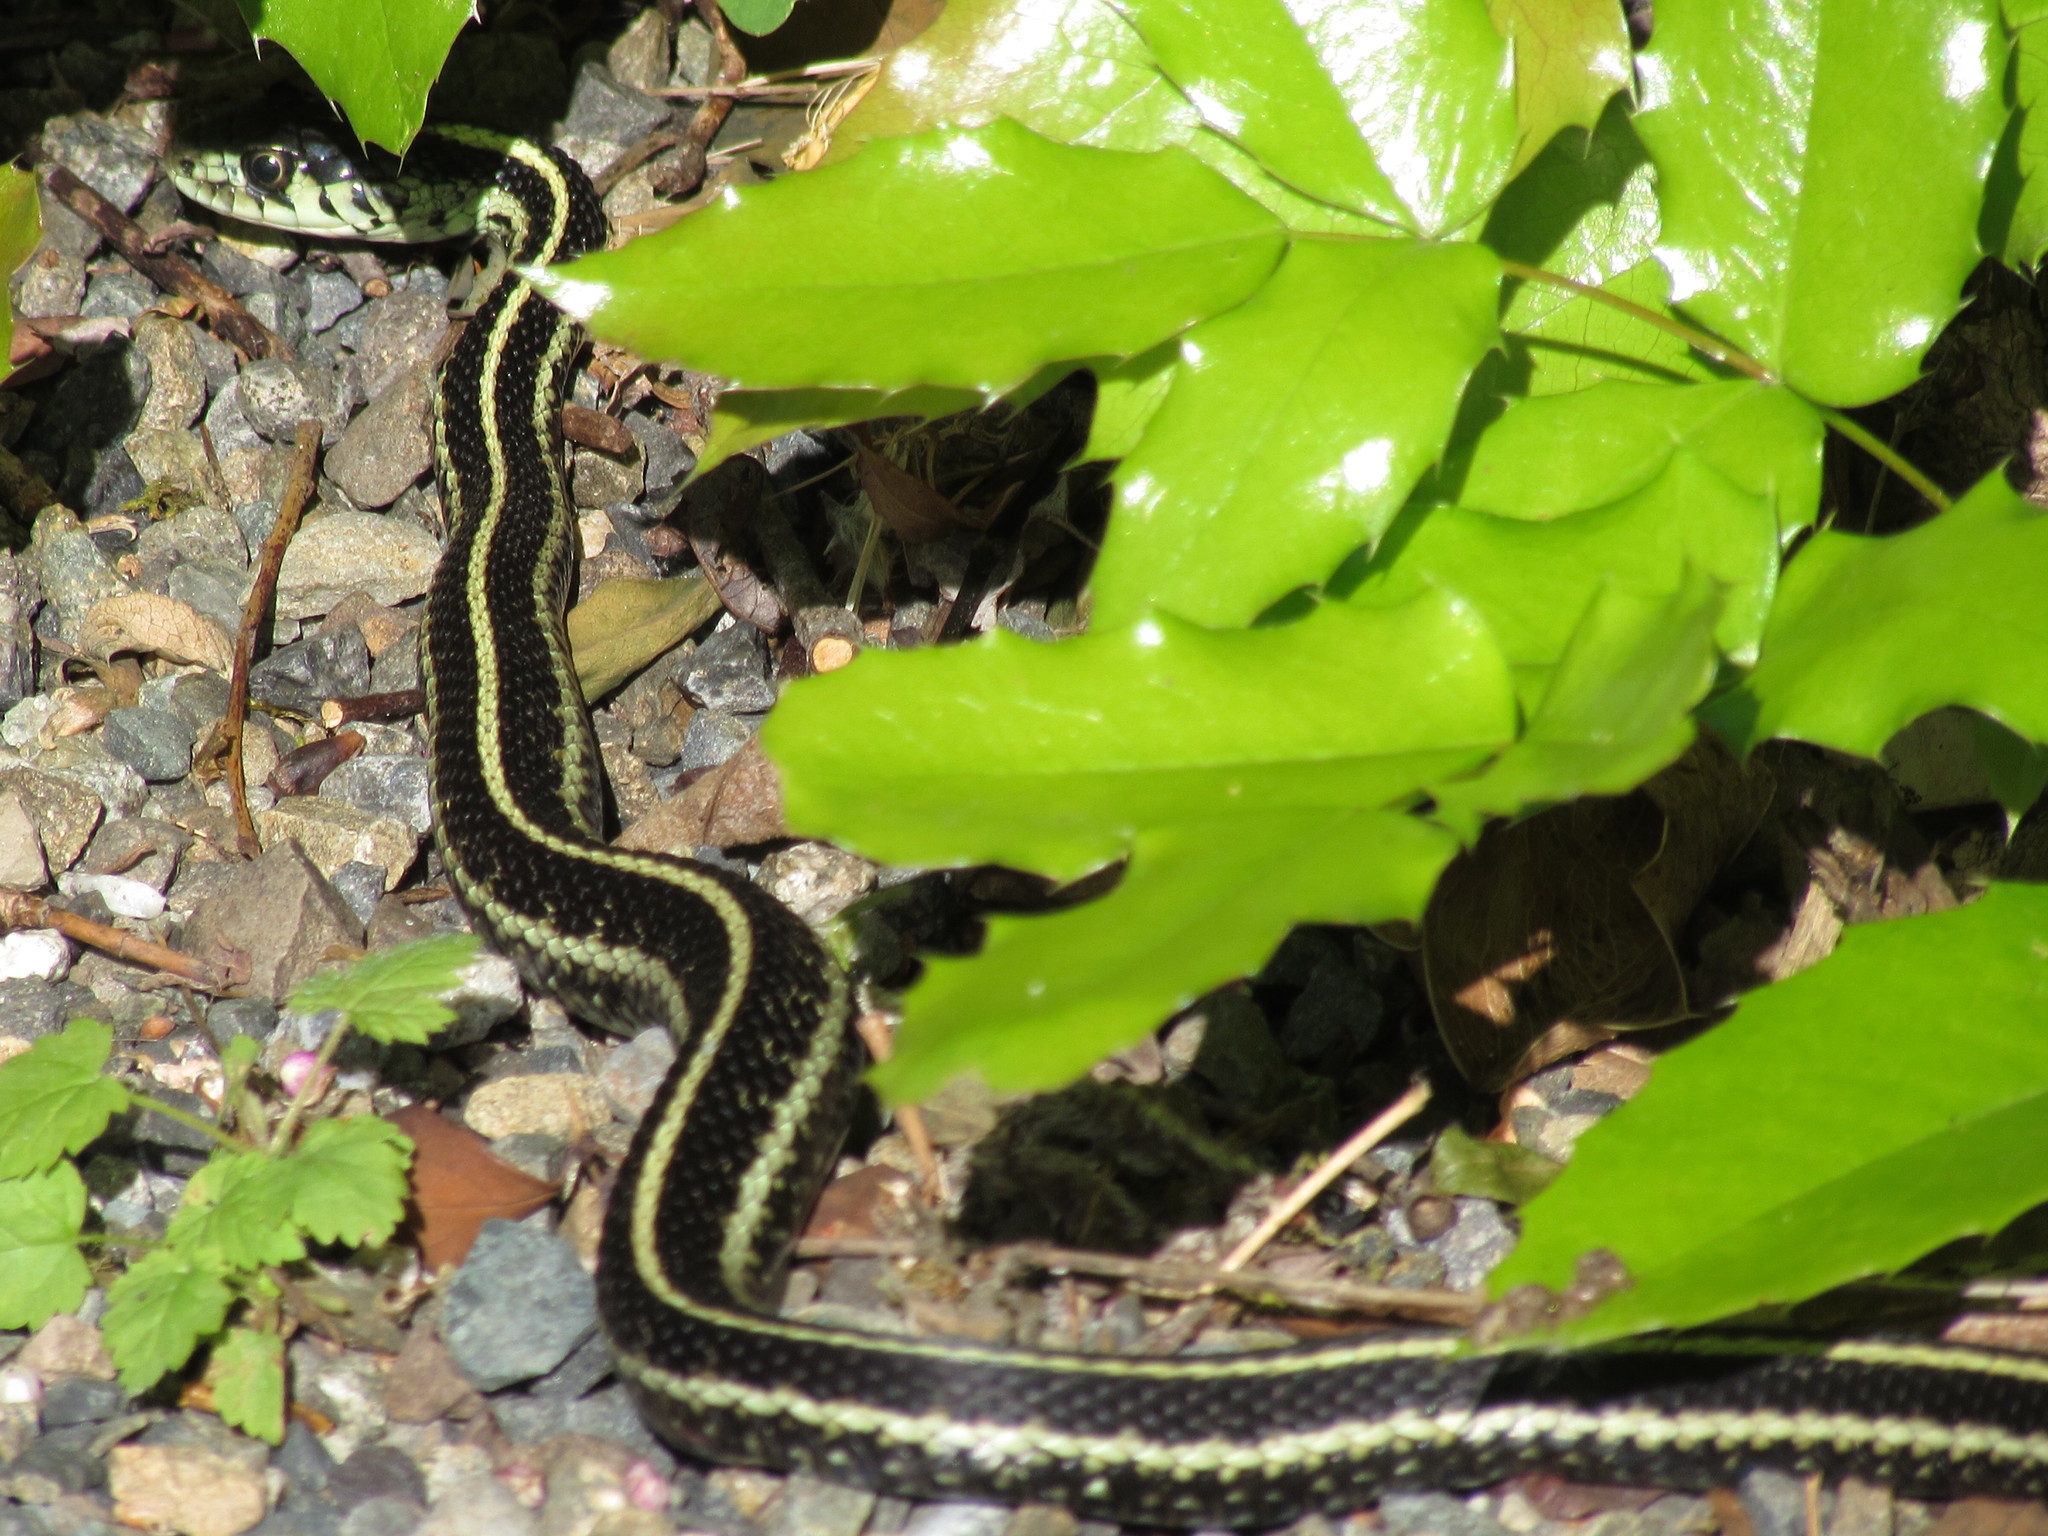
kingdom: Animalia
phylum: Chordata
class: Squamata
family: Colubridae
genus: Thamnophis
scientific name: Thamnophis sirtalis
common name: Common garter snake
